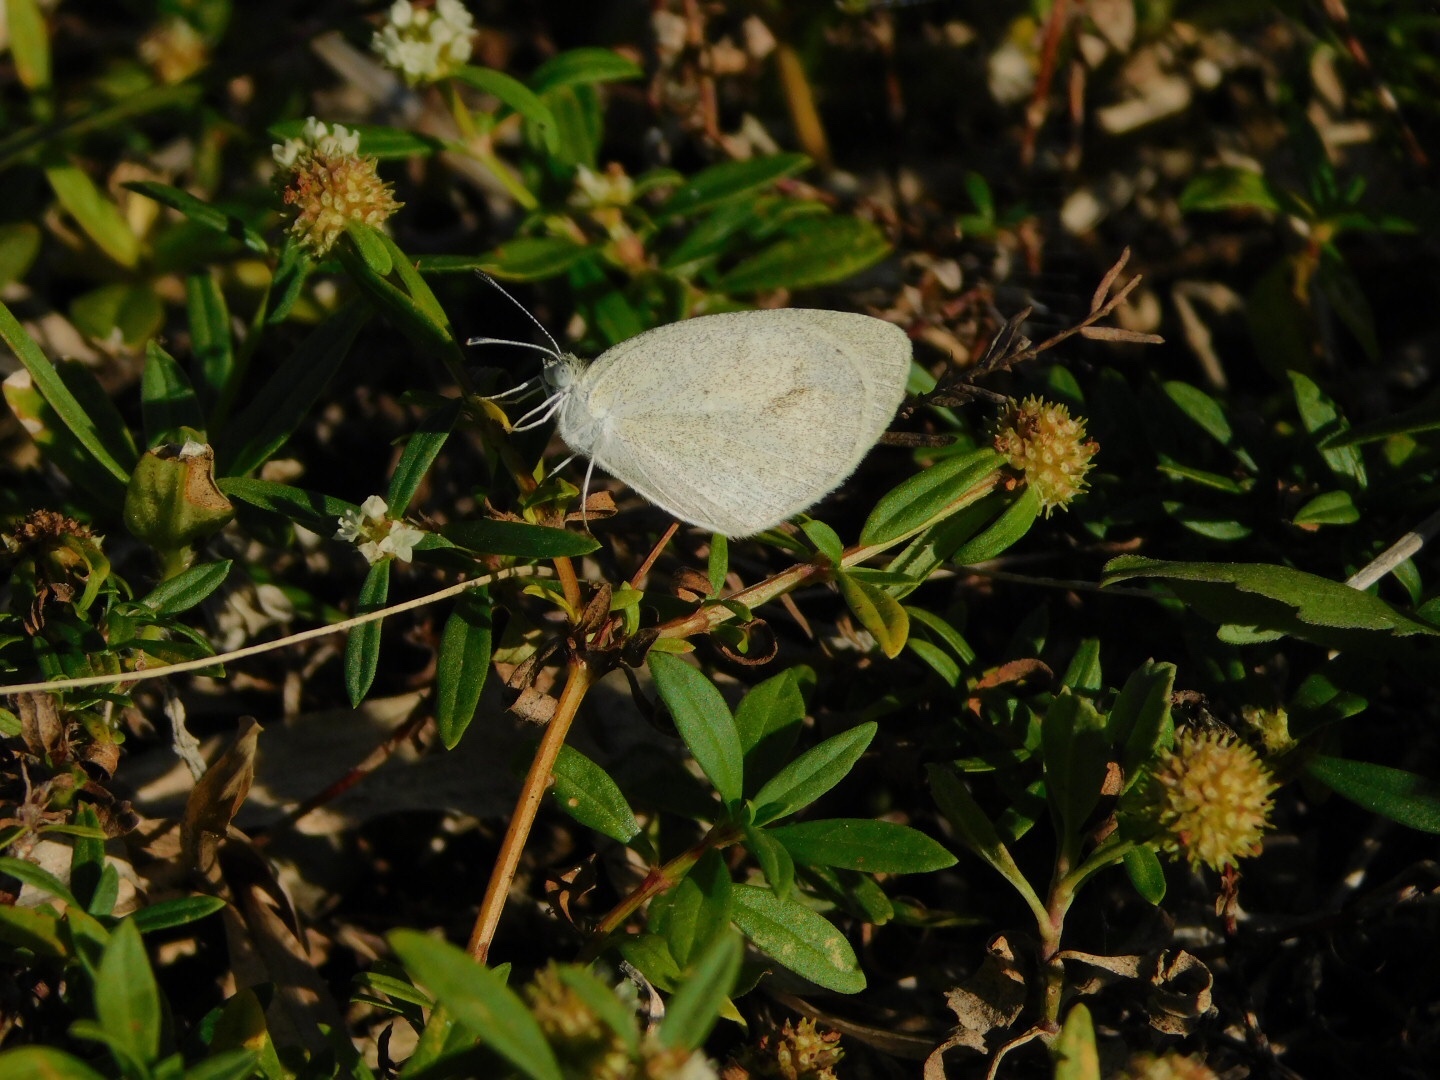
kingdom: Animalia
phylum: Arthropoda
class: Insecta
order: Lepidoptera
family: Pieridae
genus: Eurema
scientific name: Eurema daira
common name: Barred sulphur
